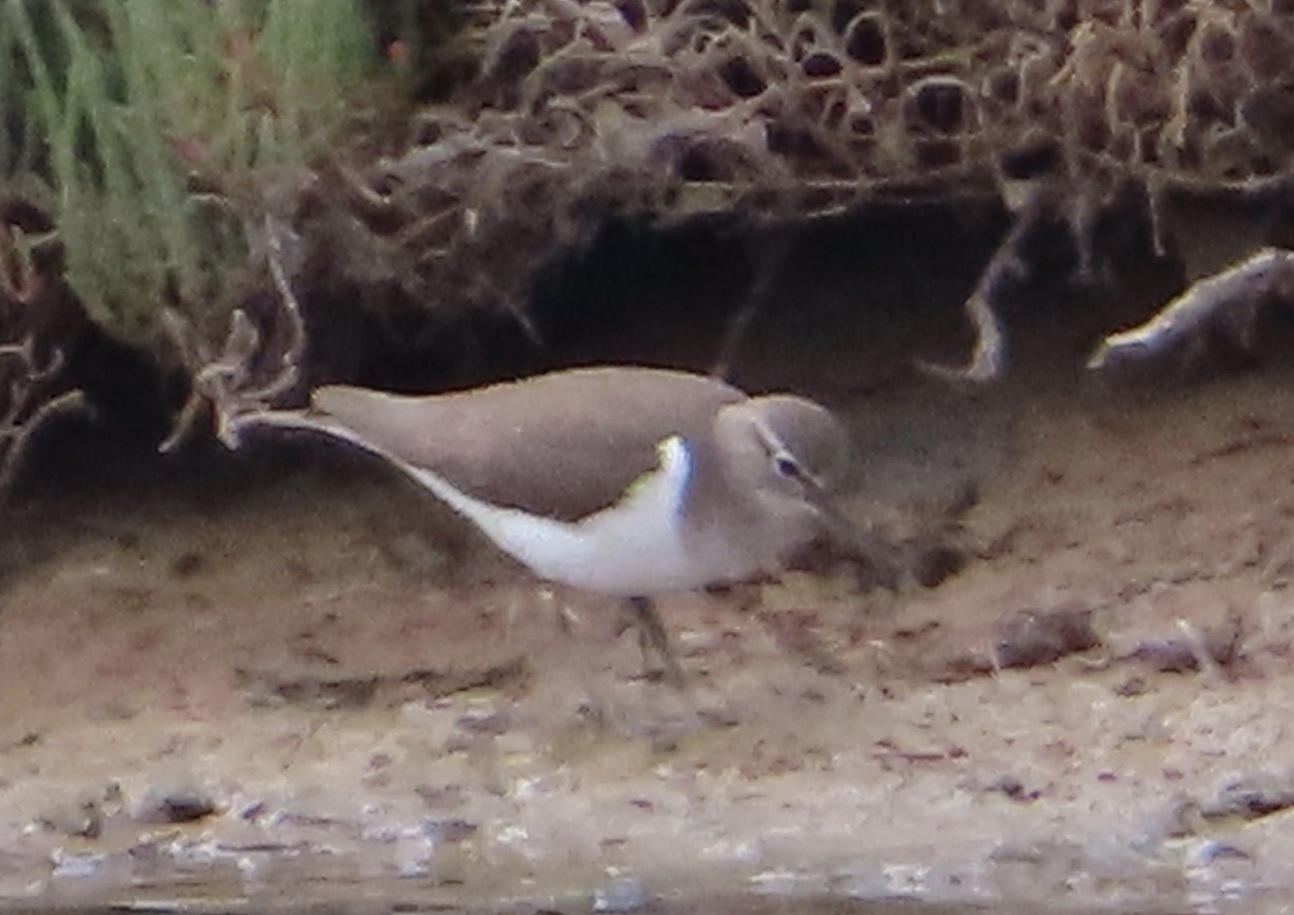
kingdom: Animalia
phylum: Chordata
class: Aves
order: Charadriiformes
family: Scolopacidae
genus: Actitis
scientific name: Actitis hypoleucos
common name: Common sandpiper
